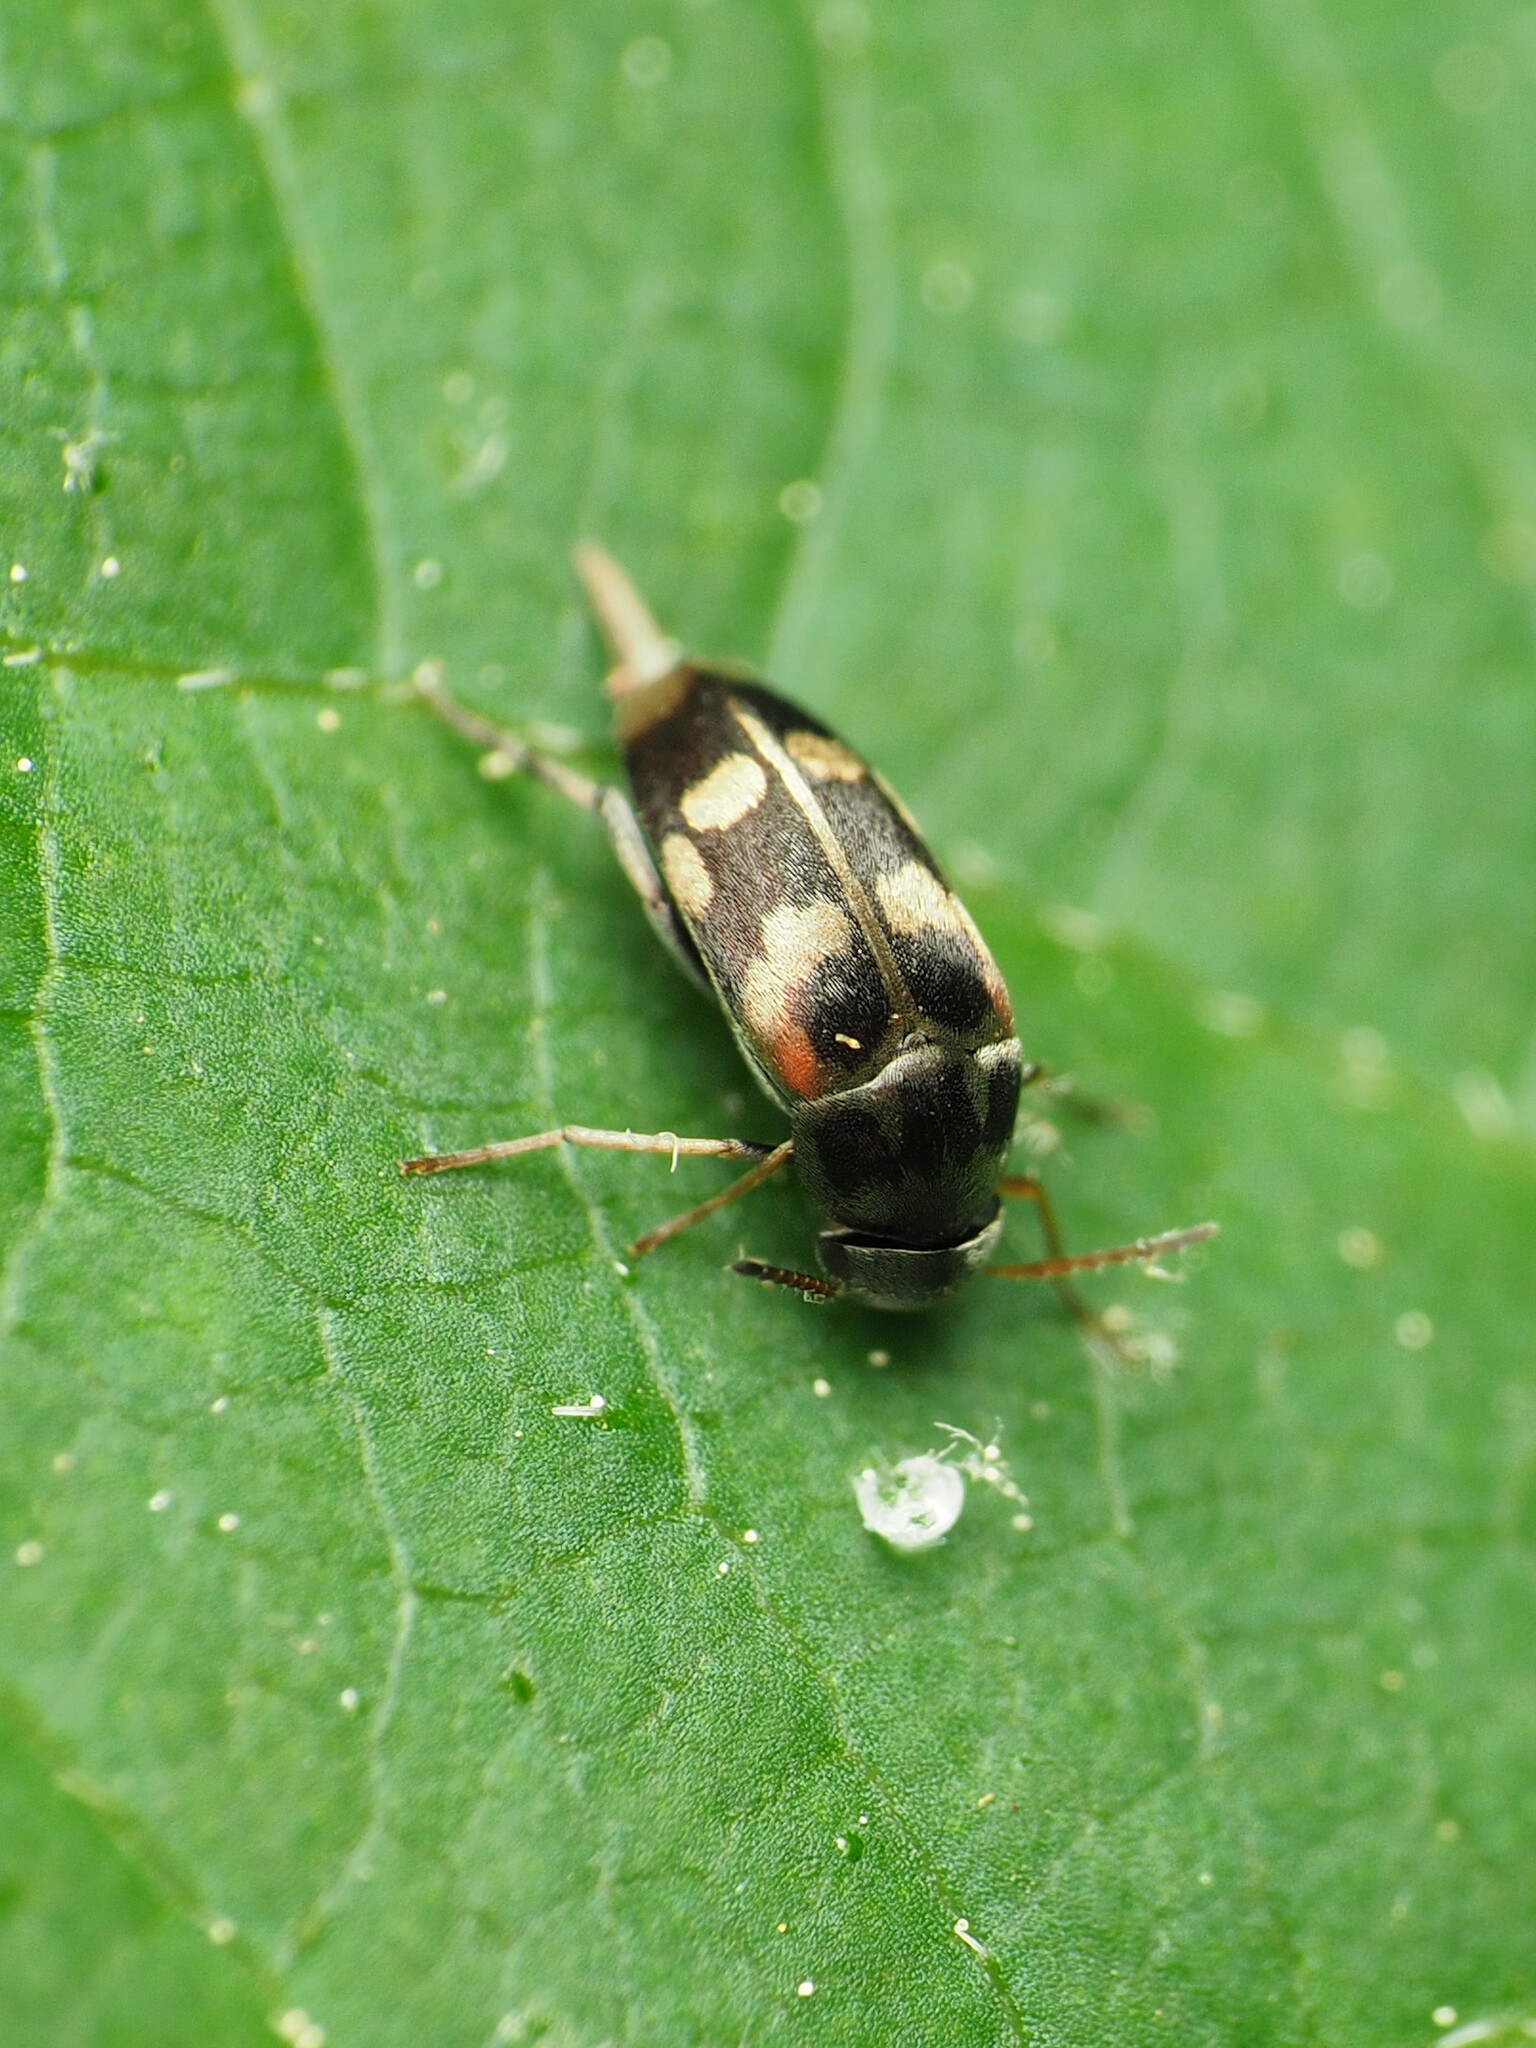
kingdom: Animalia
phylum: Arthropoda
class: Insecta
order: Coleoptera
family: Mordellidae
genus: Falsomordellistena
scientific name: Falsomordellistena pubescens
